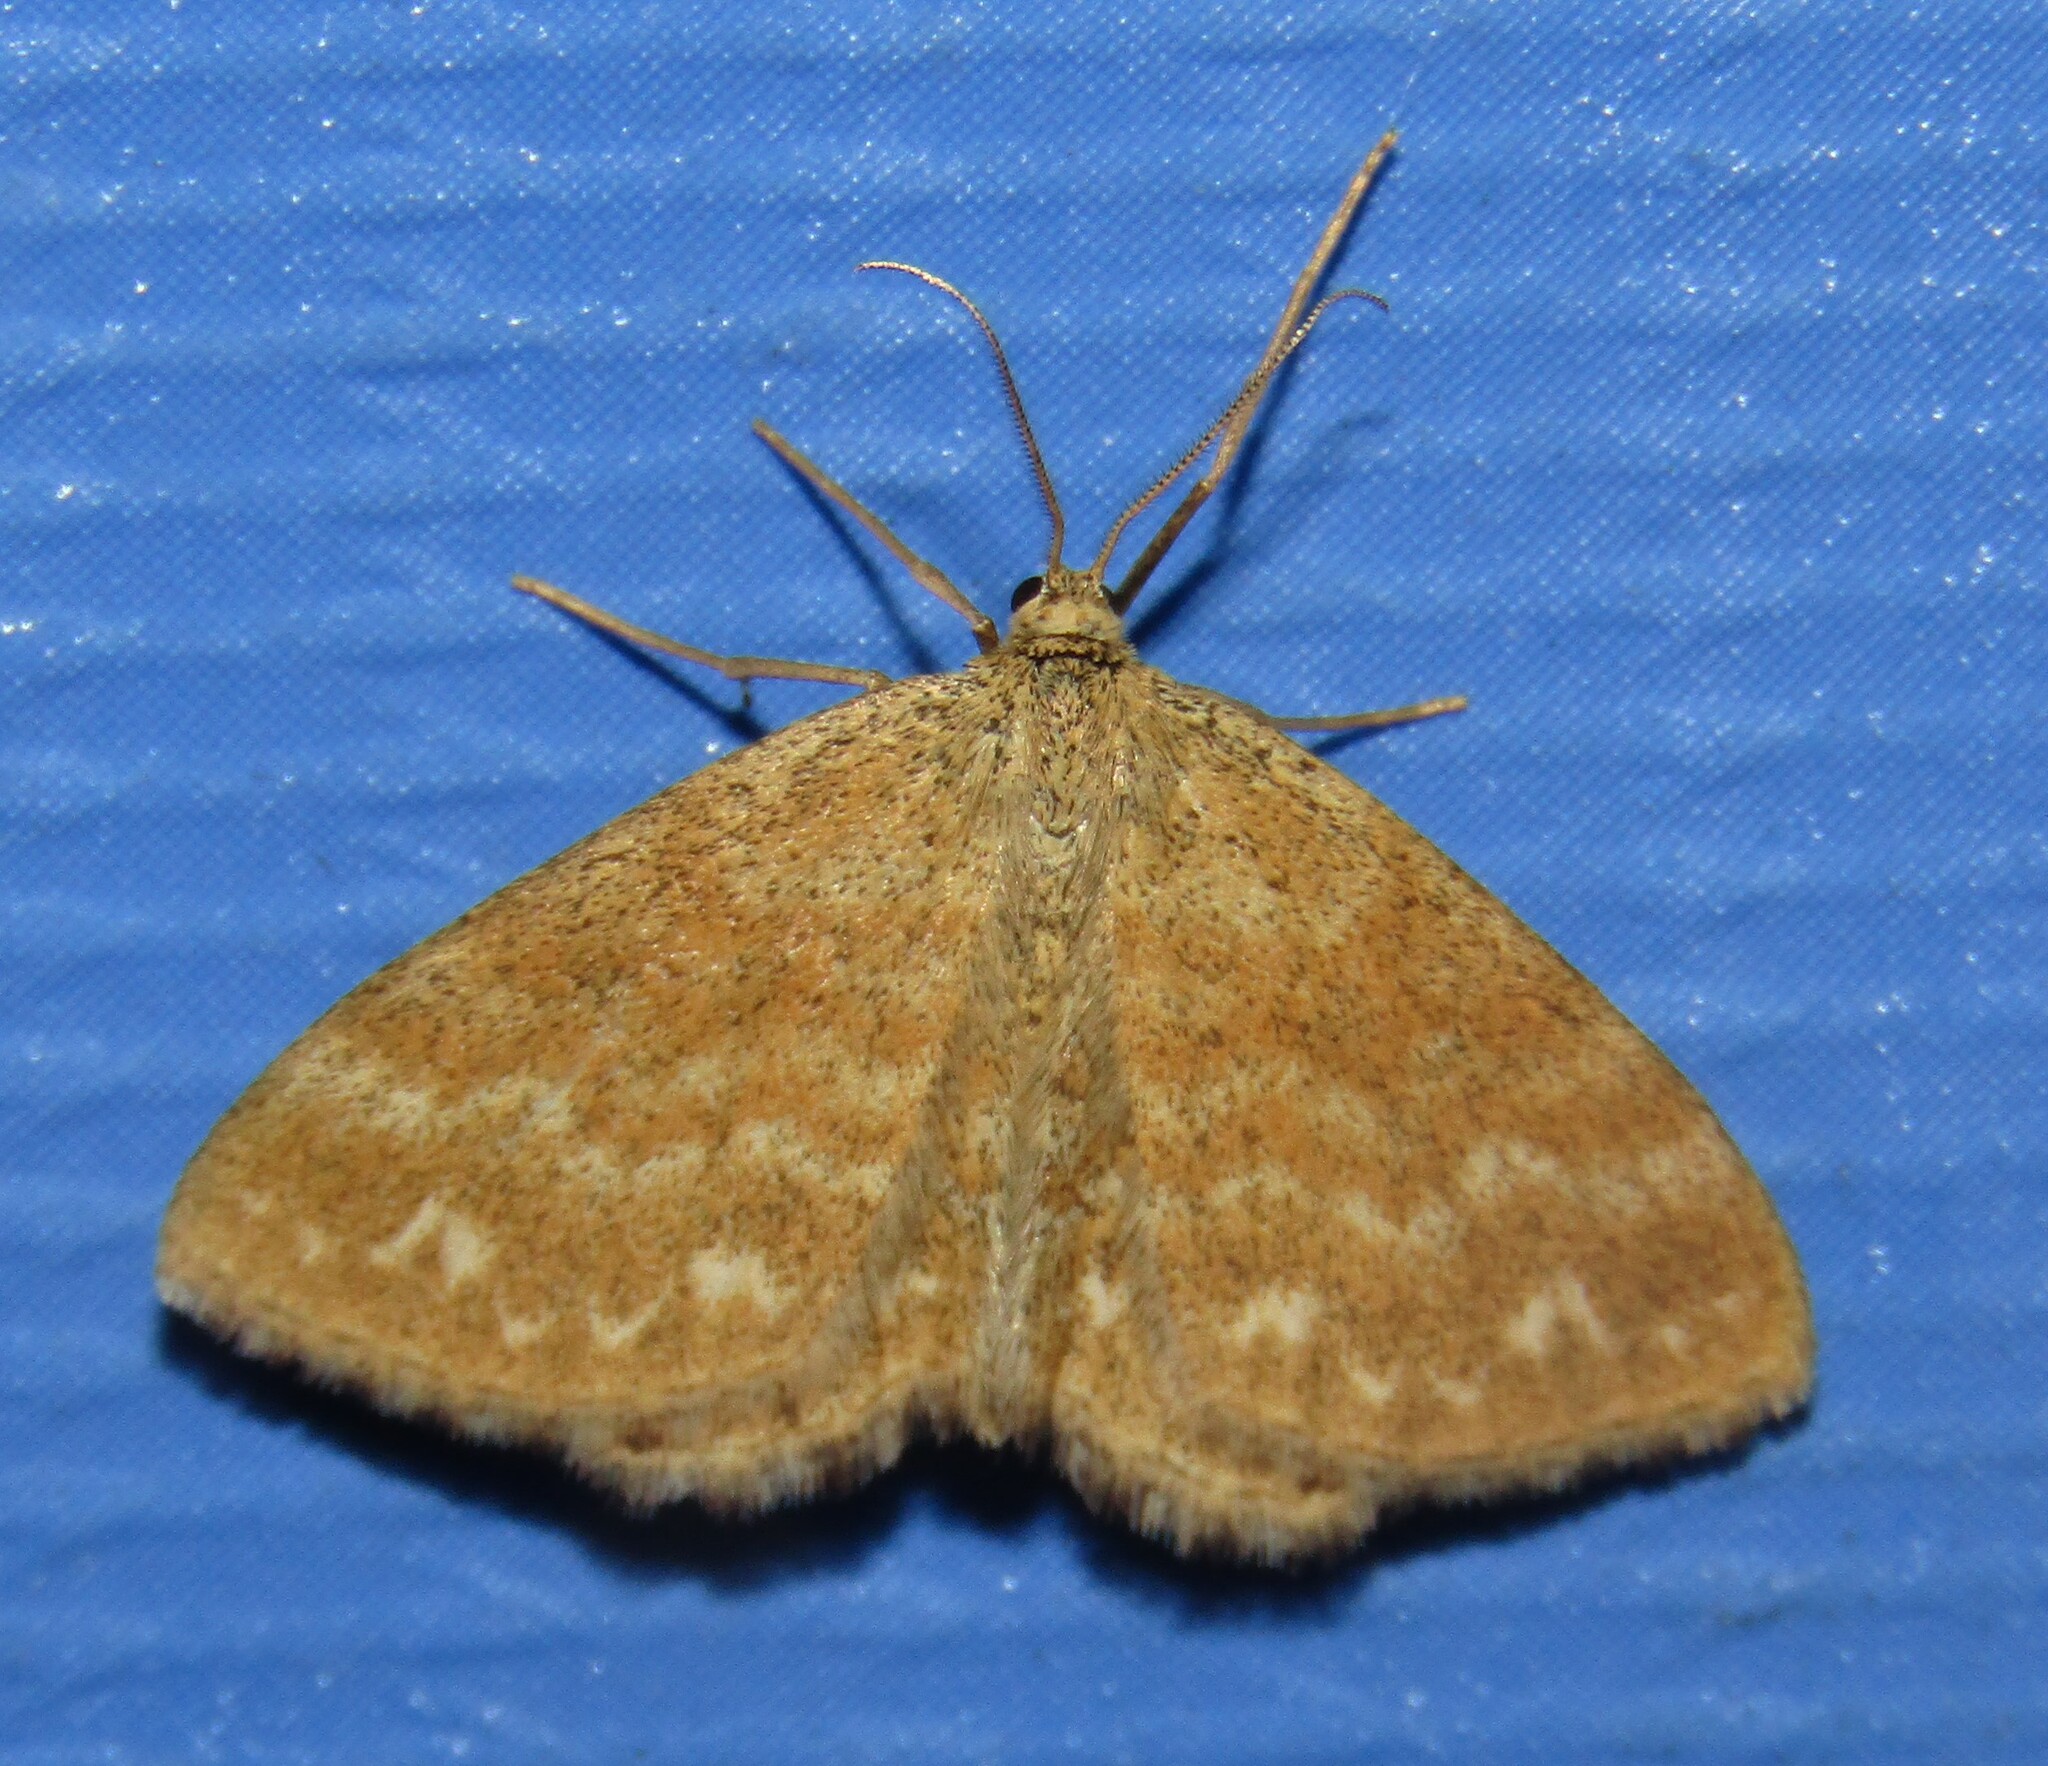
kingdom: Animalia
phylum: Arthropoda
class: Insecta
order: Lepidoptera
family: Geometridae
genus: Scopula
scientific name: Scopula immorata
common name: Lewes wave
